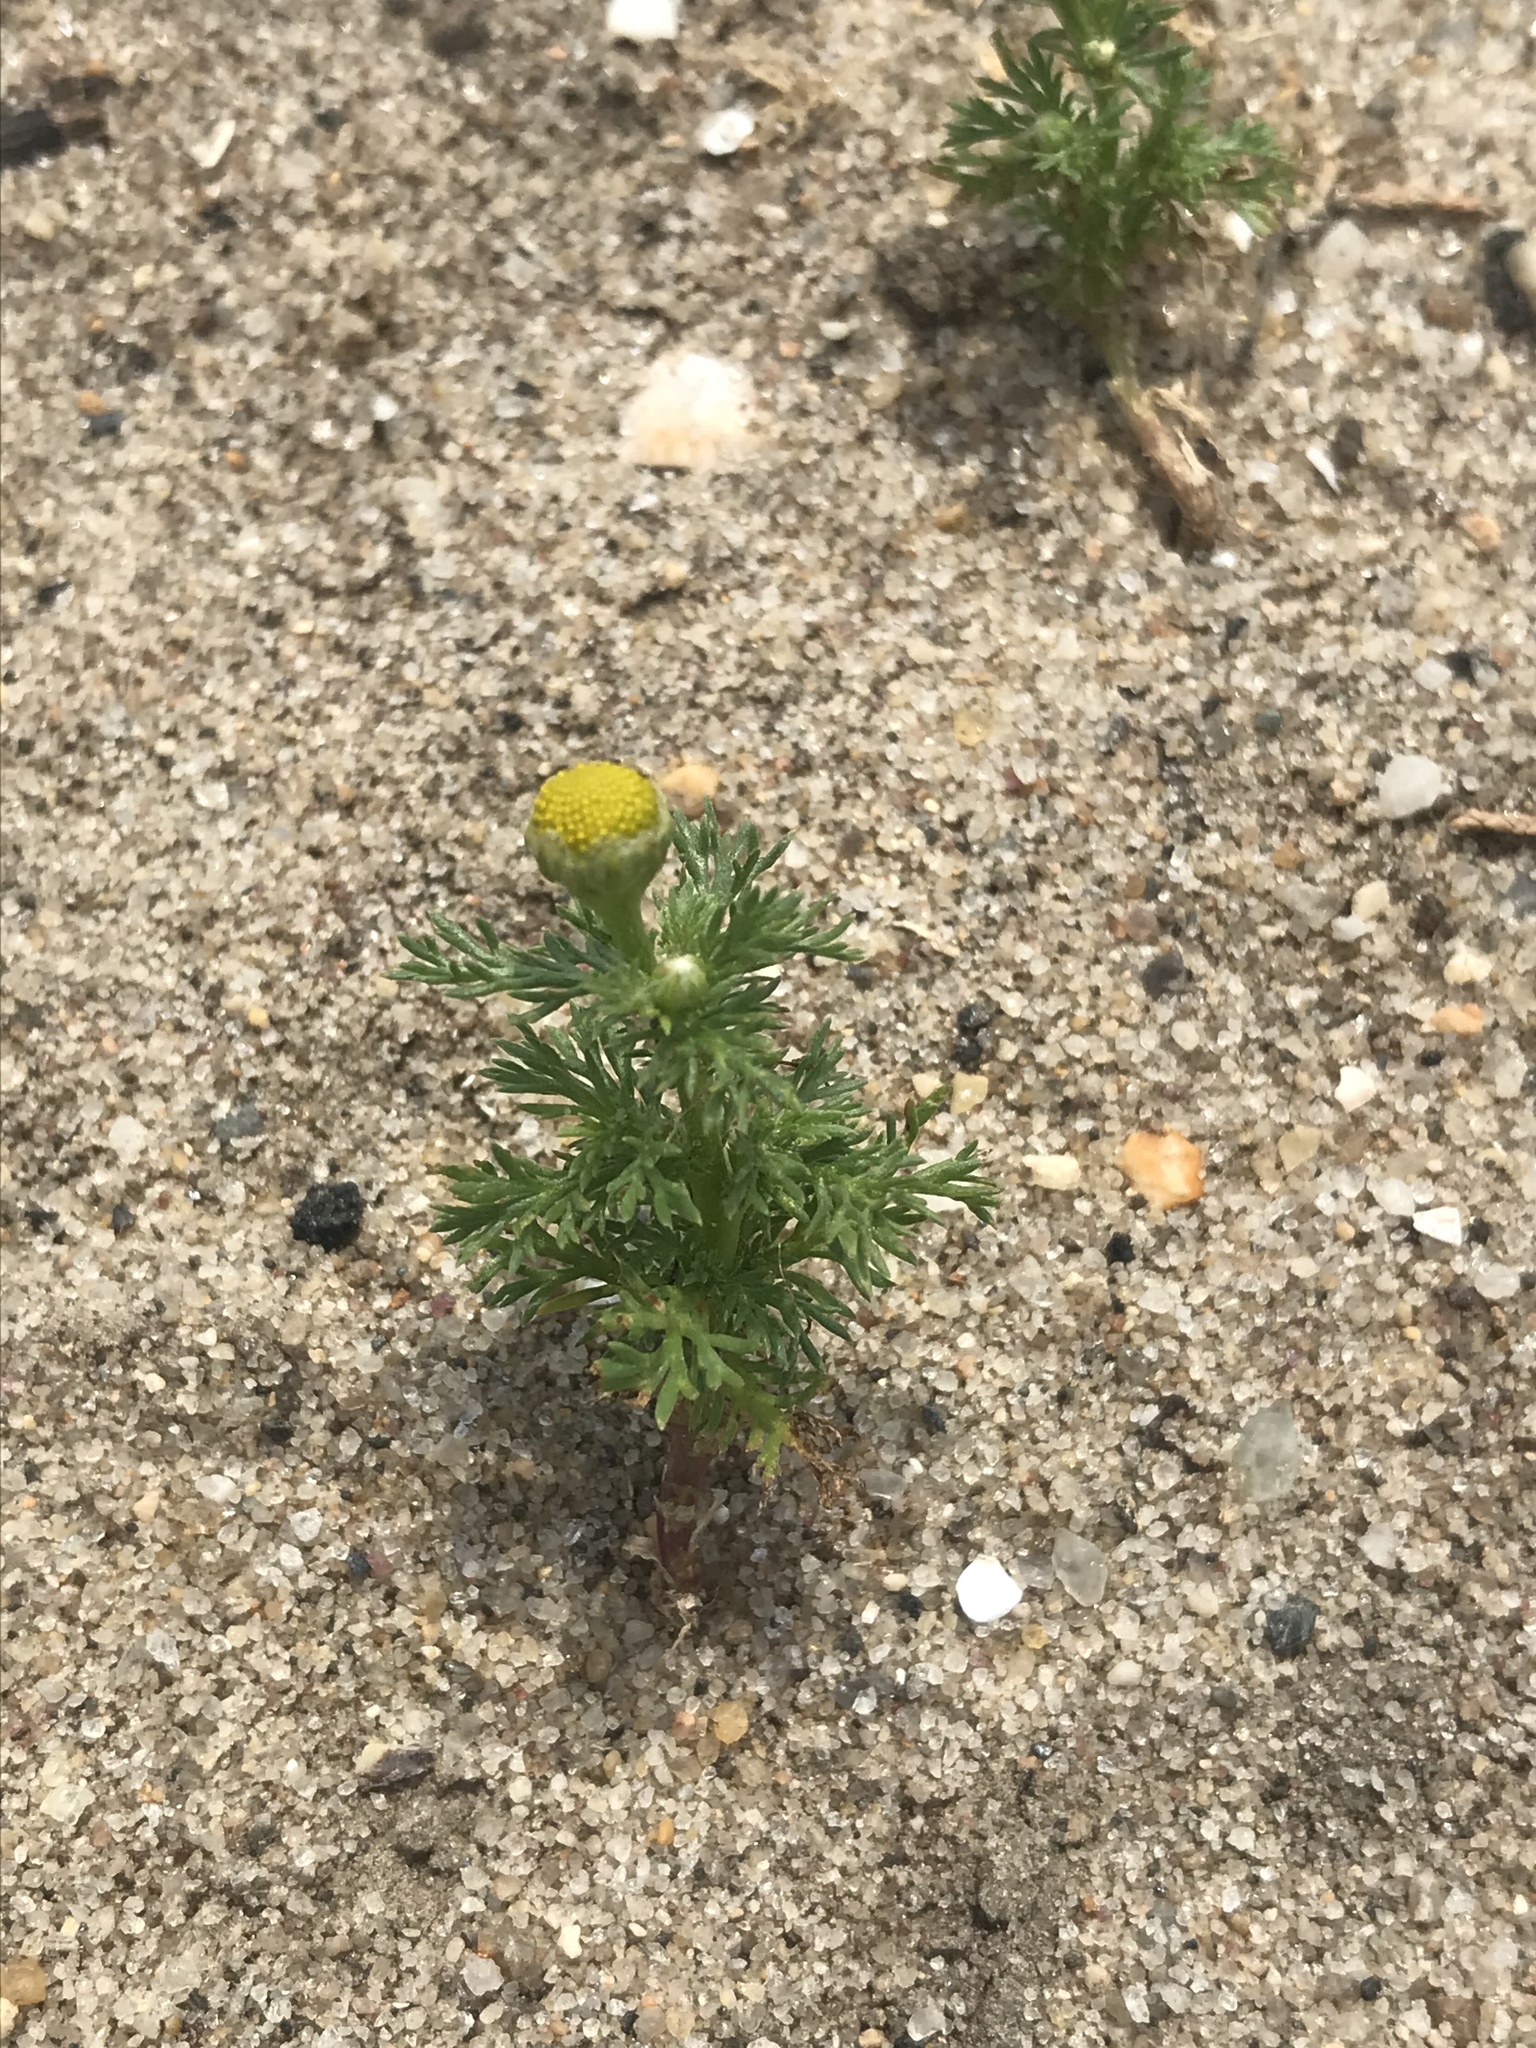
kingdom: Plantae
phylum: Tracheophyta
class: Magnoliopsida
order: Asterales
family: Asteraceae
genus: Matricaria
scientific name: Matricaria discoidea
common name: Disc mayweed
